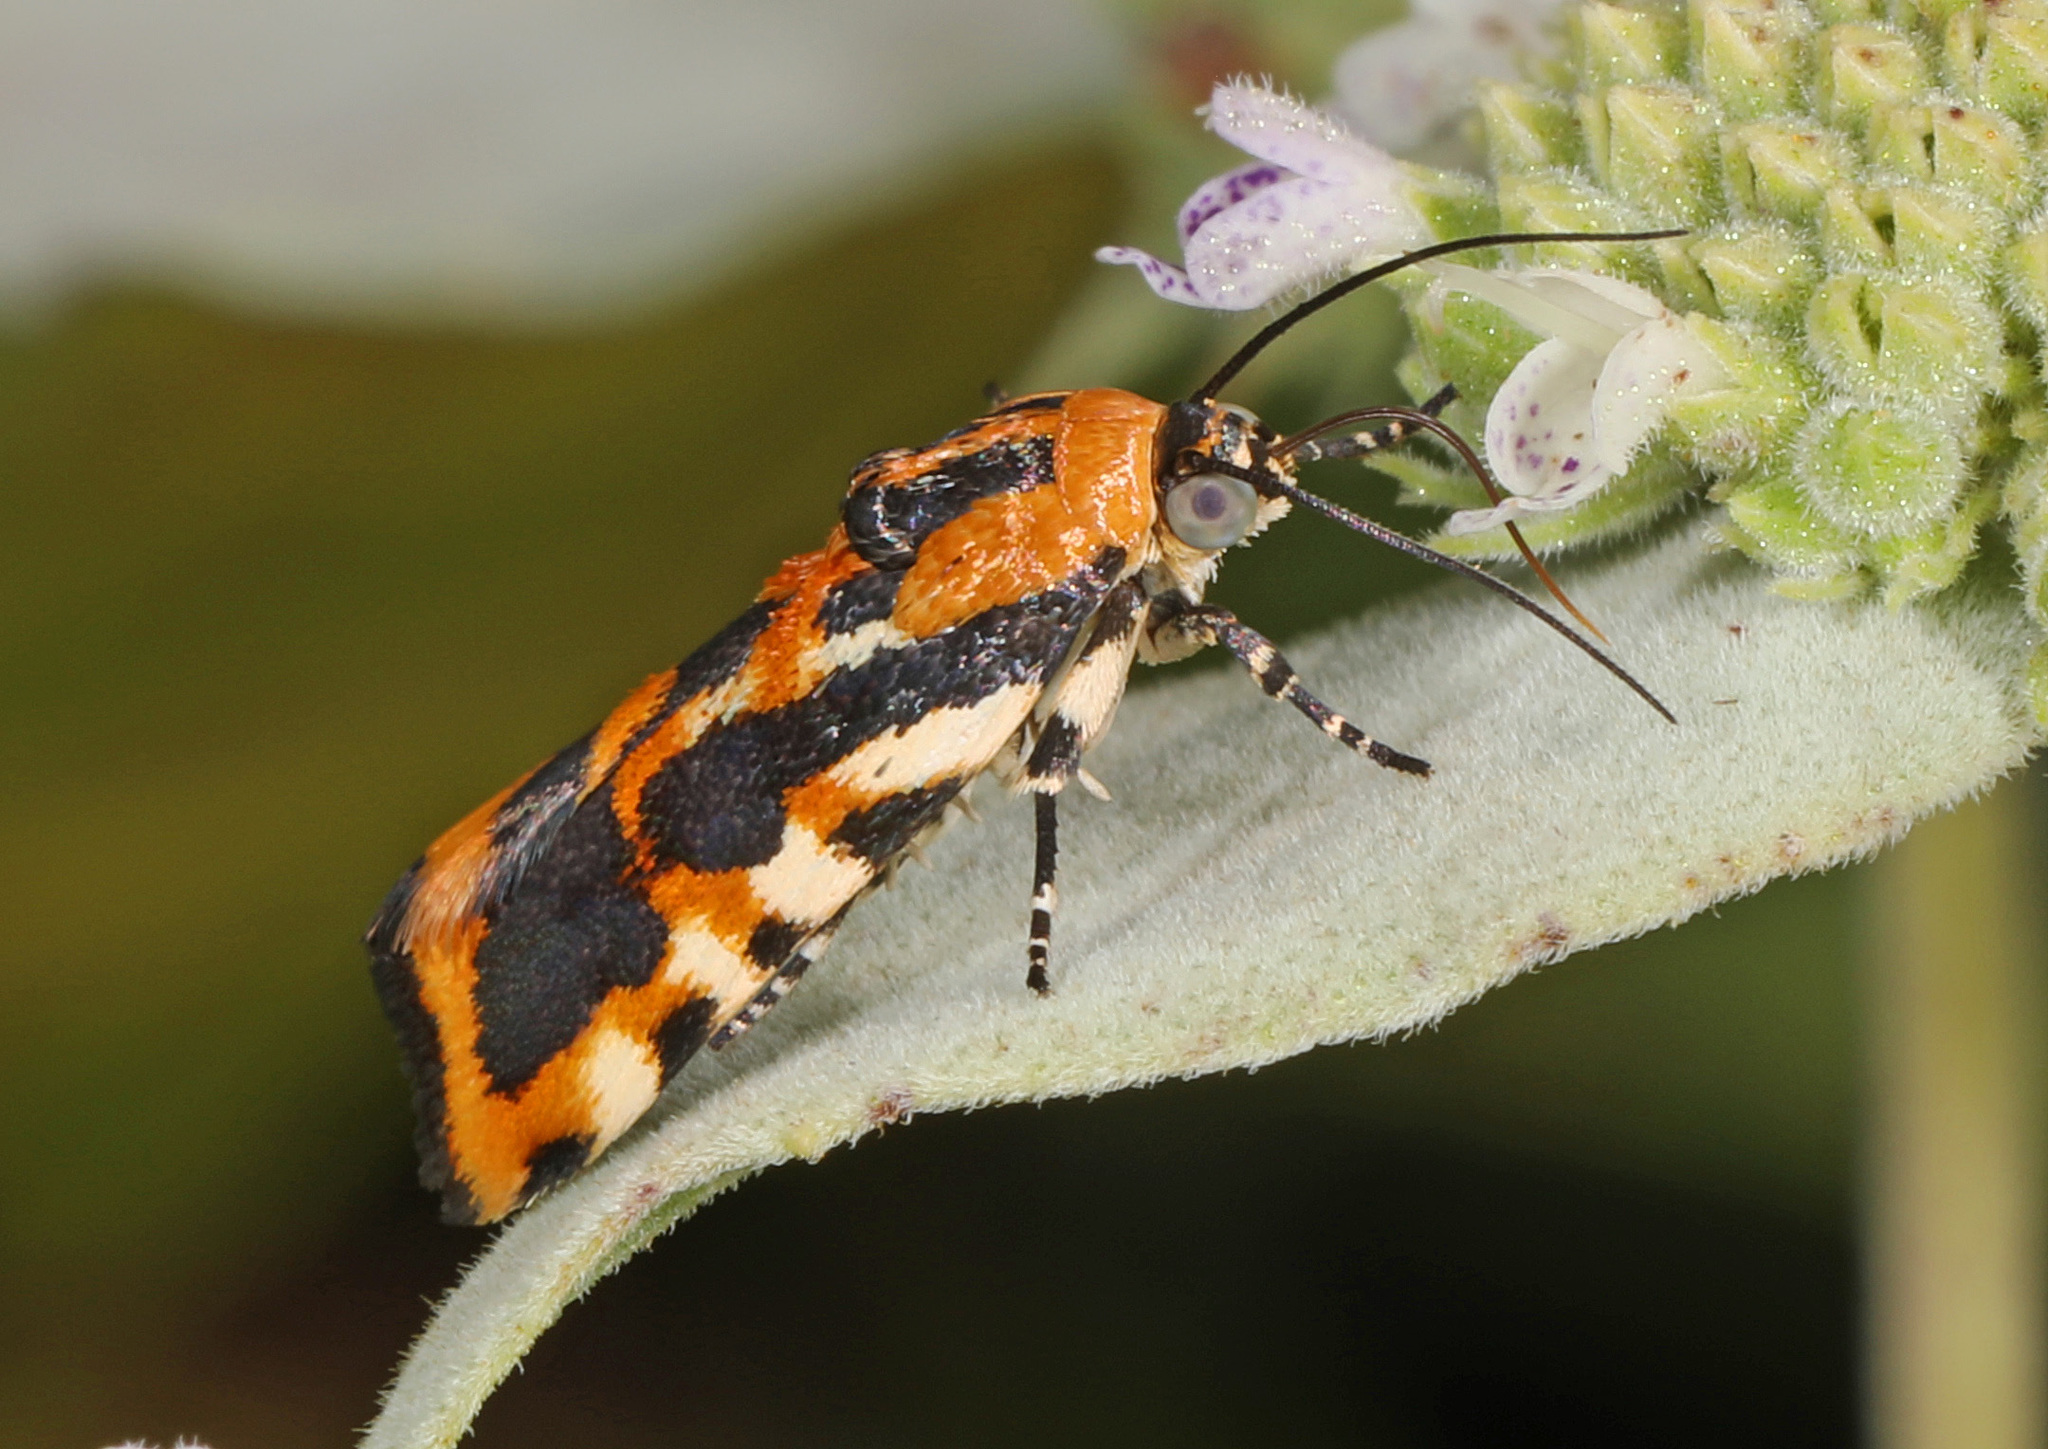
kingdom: Animalia
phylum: Arthropoda
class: Insecta
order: Lepidoptera
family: Noctuidae
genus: Acontia
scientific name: Acontia leo
